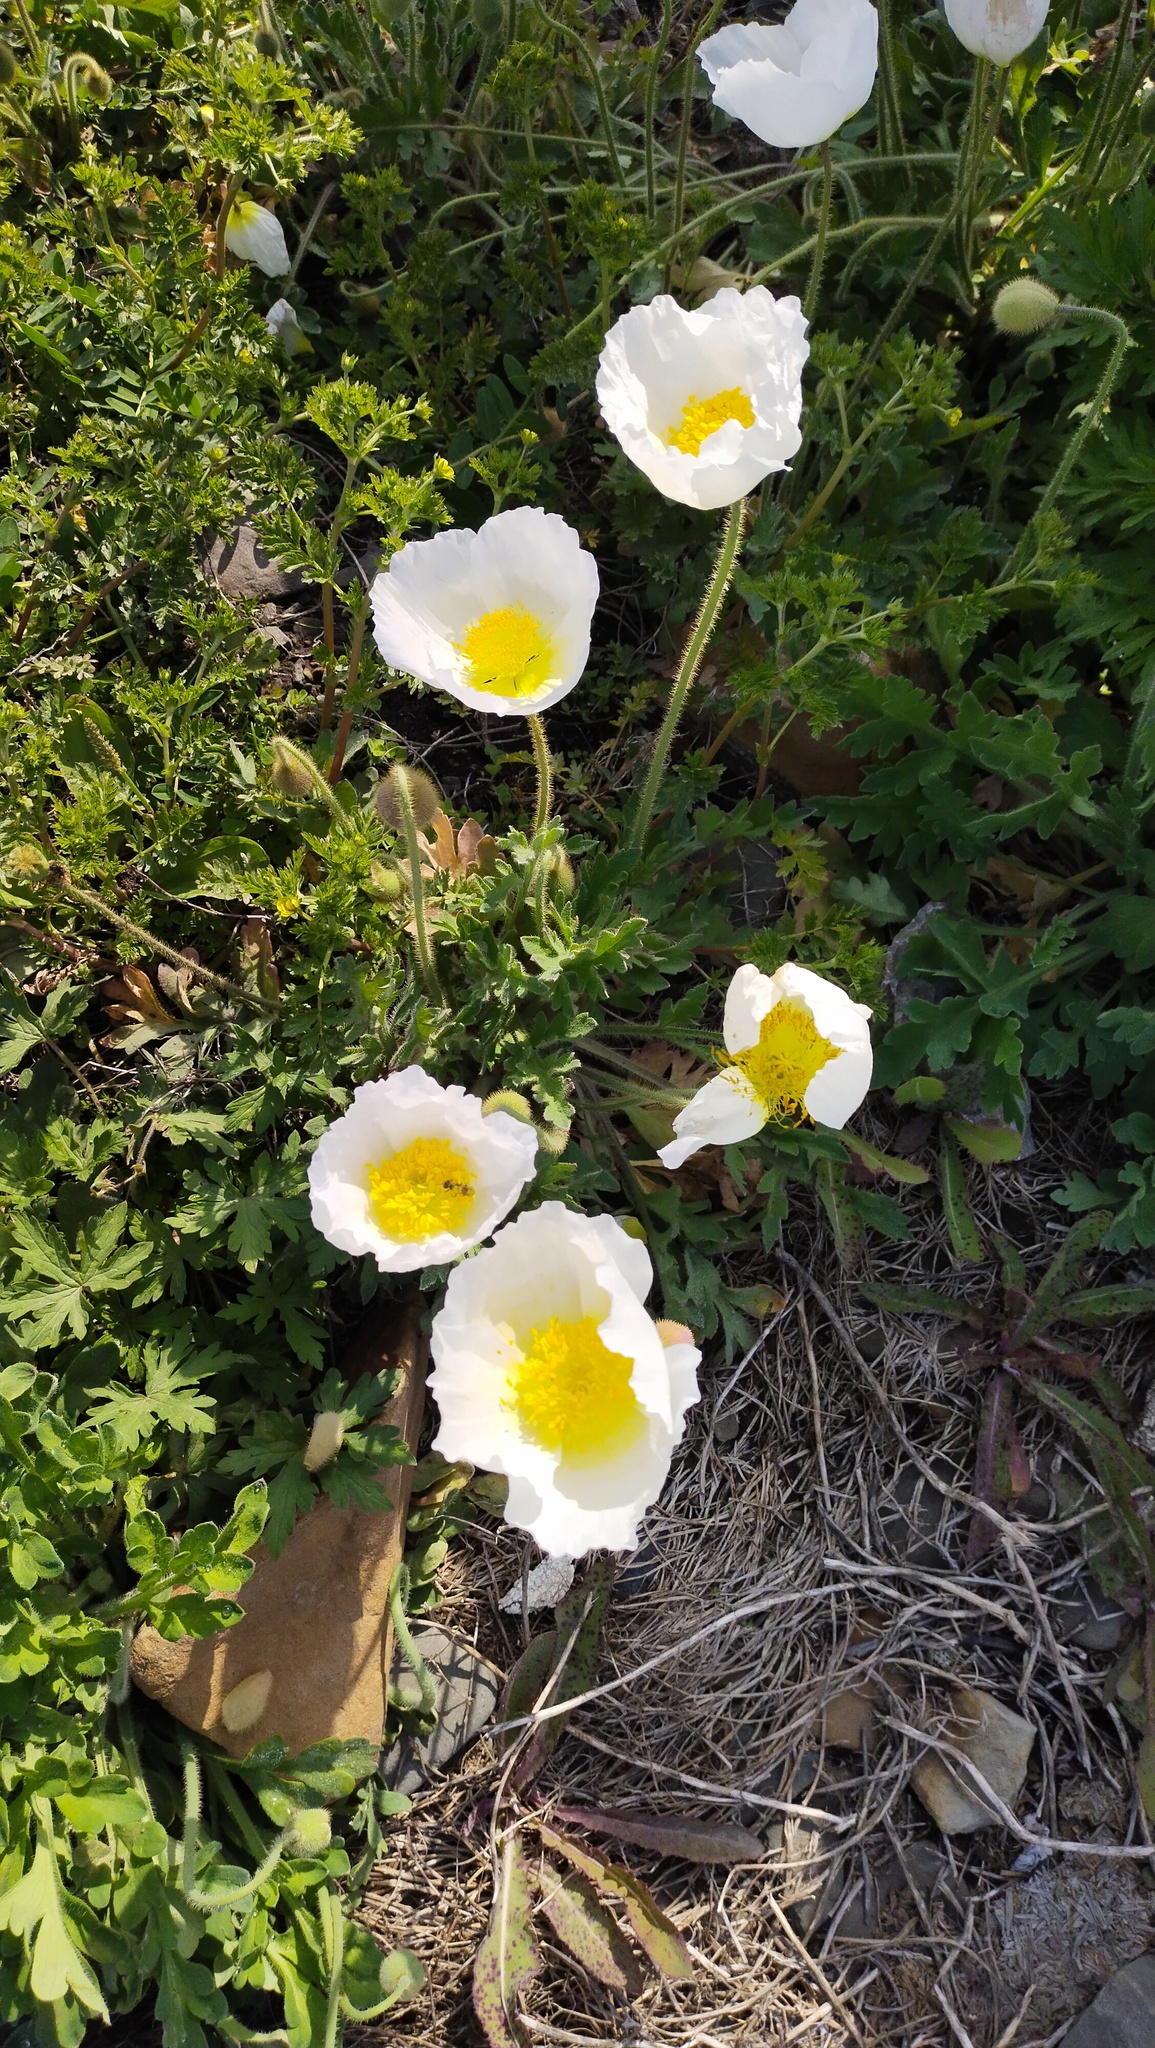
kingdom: Plantae
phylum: Tracheophyta
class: Magnoliopsida
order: Ranunculales
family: Papaveraceae
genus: Papaver
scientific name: Papaver sokolovskajae
